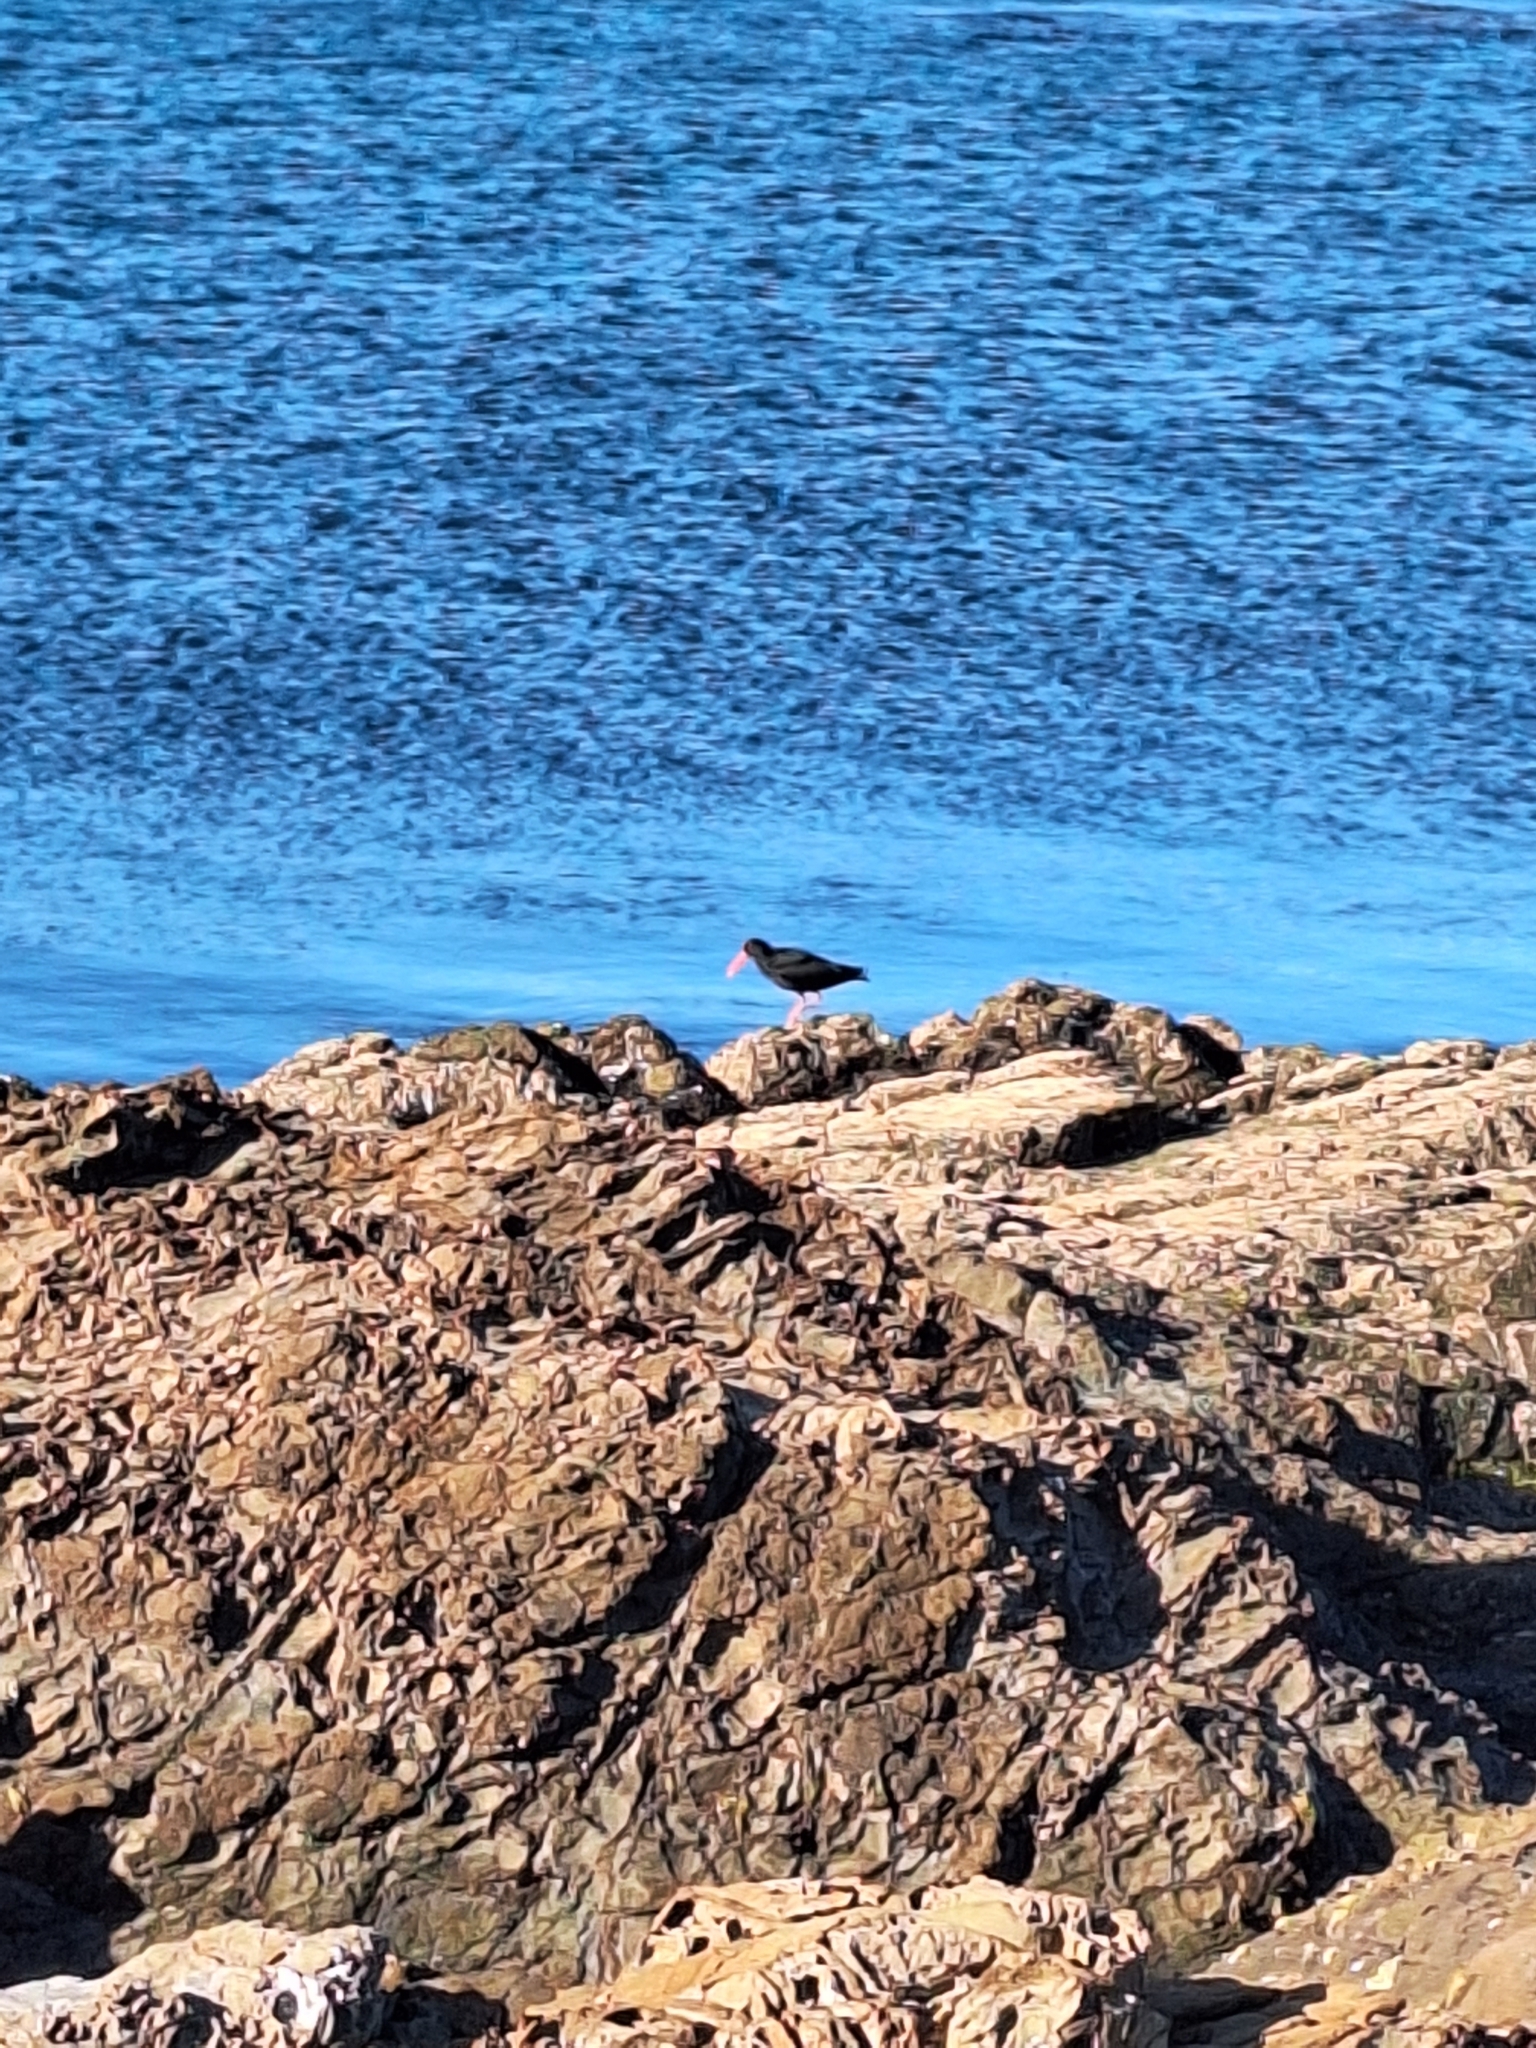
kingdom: Animalia
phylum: Chordata
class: Aves
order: Charadriiformes
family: Haematopodidae
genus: Haematopus
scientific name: Haematopus unicolor
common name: Variable oystercatcher
